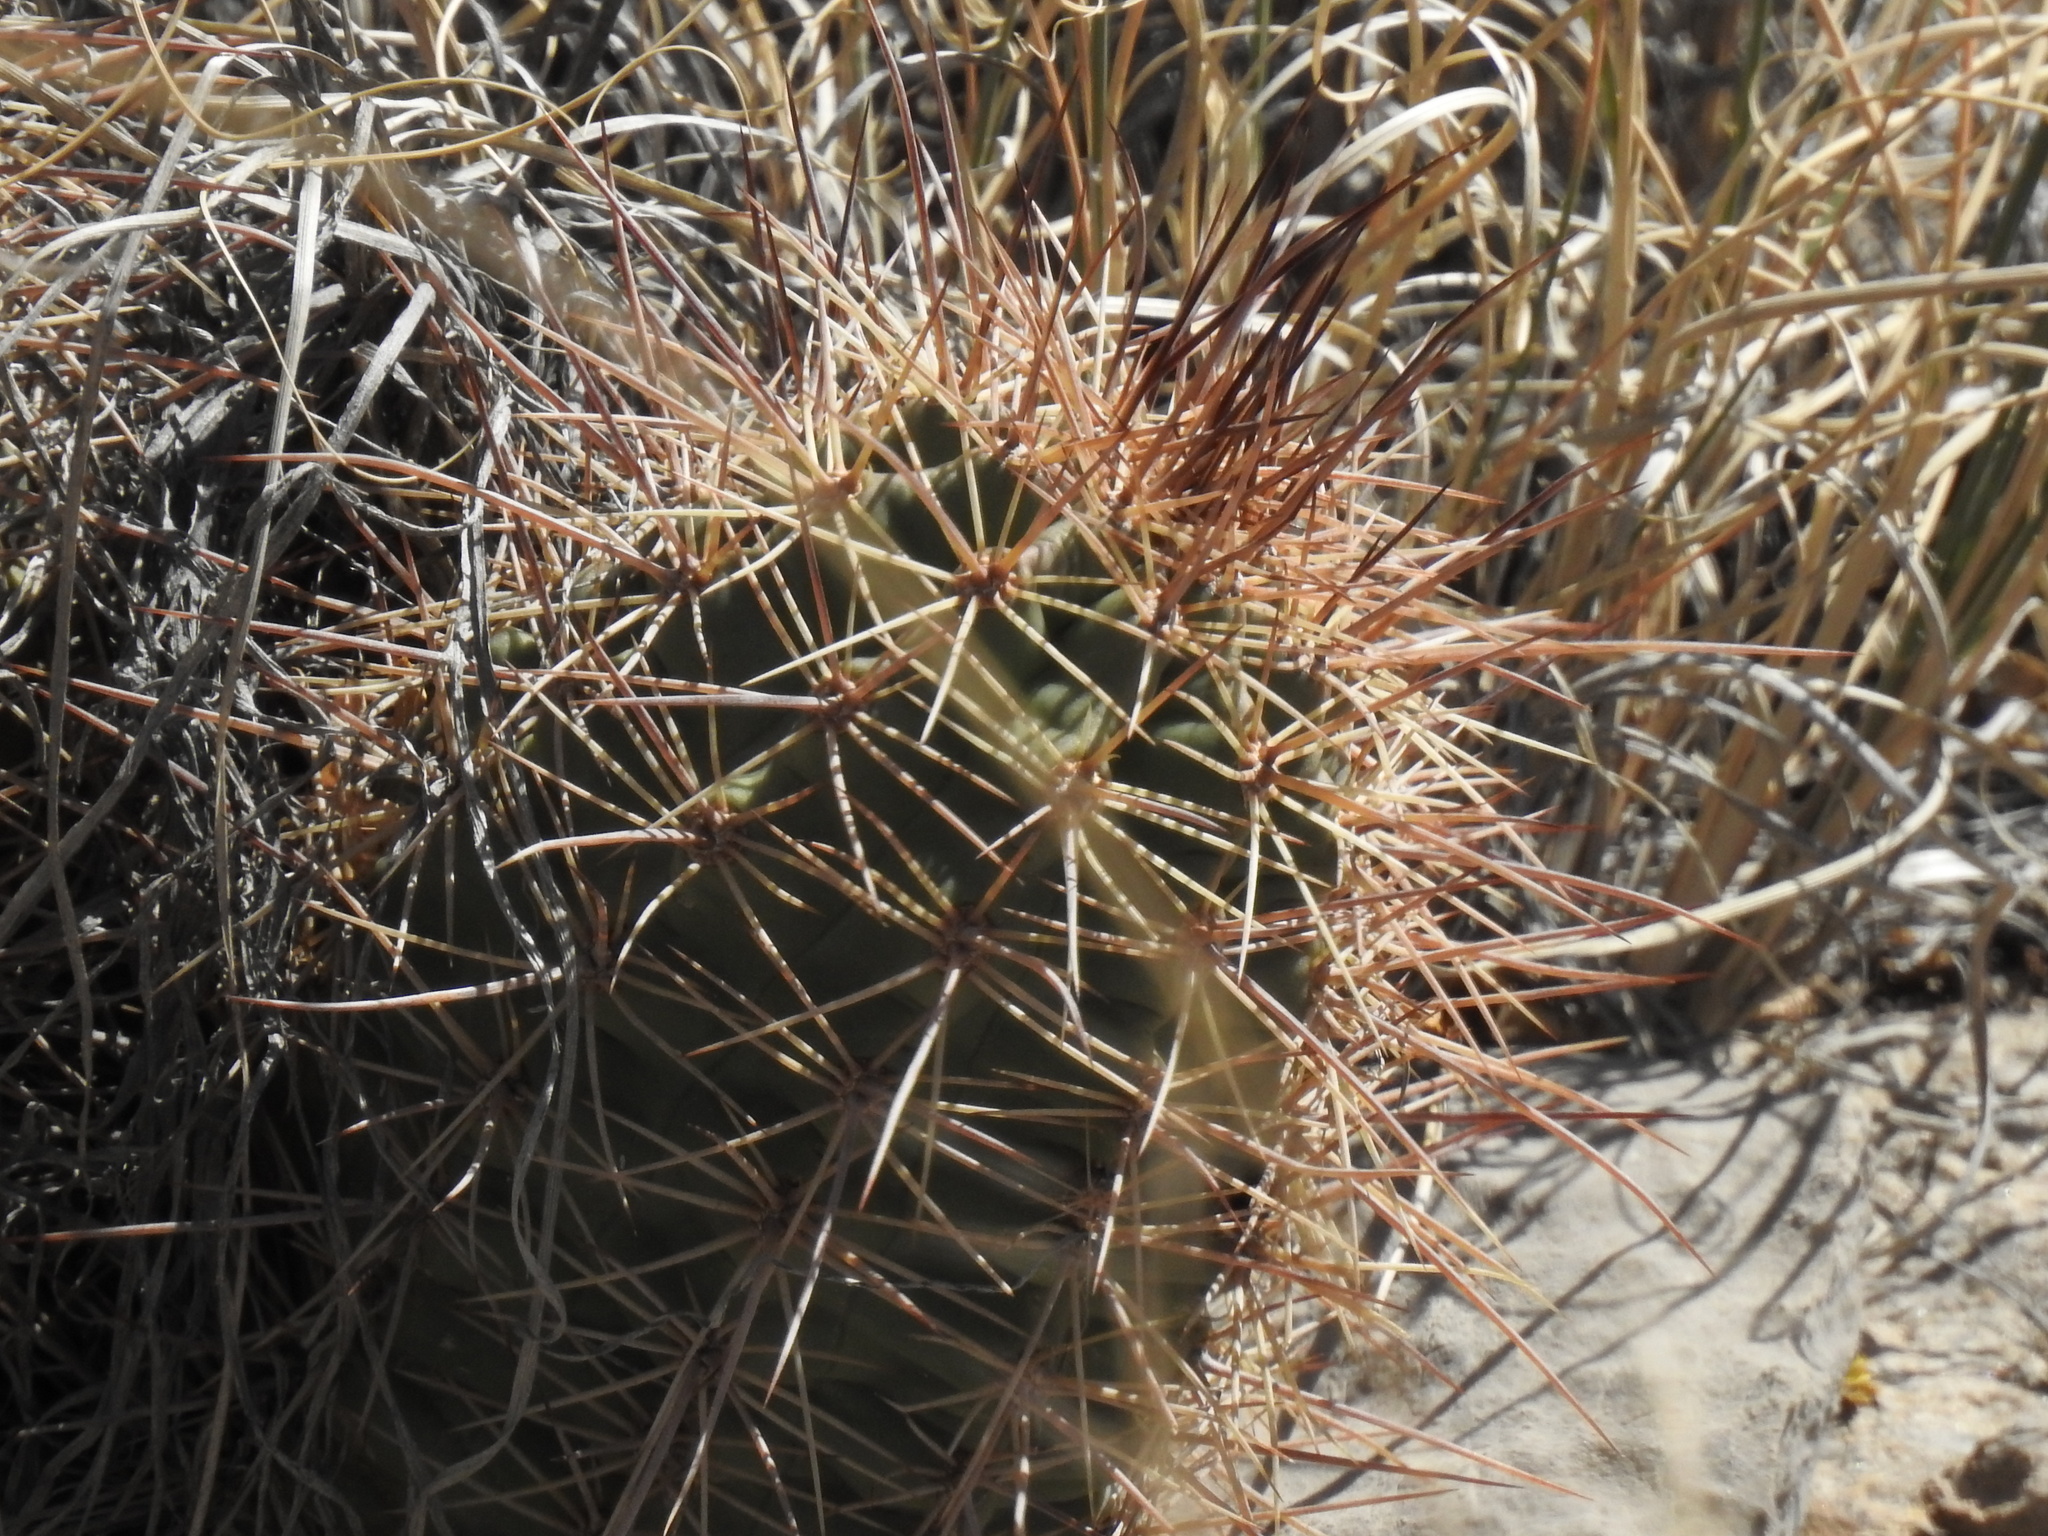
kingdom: Plantae
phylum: Tracheophyta
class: Magnoliopsida
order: Caryophyllales
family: Cactaceae
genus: Echinocereus
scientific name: Echinocereus coccineus
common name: Scarlet hedgehog cactus
